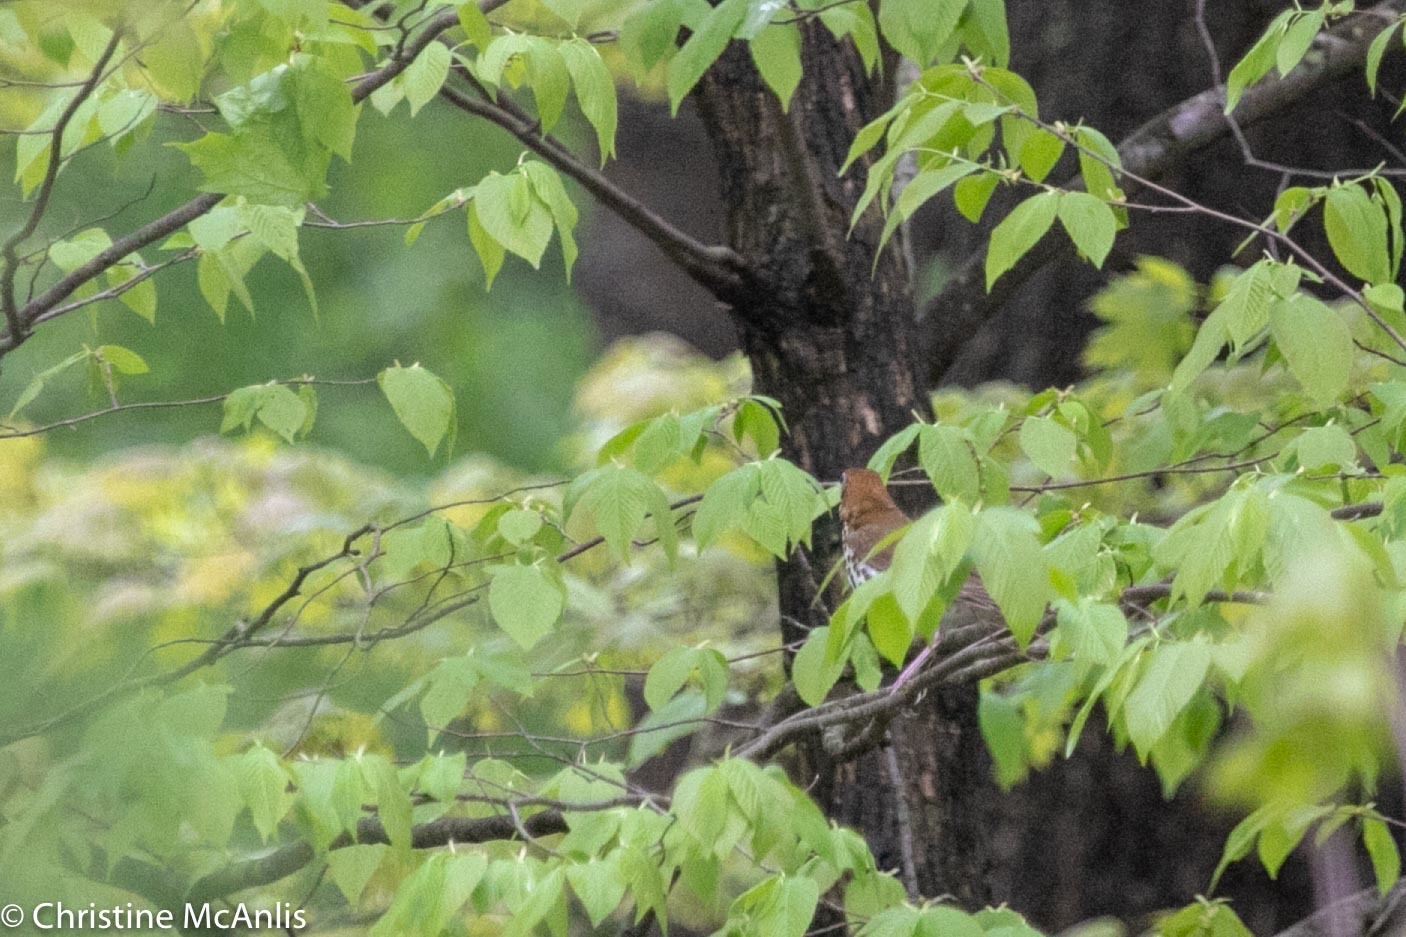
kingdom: Animalia
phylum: Chordata
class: Aves
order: Passeriformes
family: Turdidae
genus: Hylocichla
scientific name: Hylocichla mustelina
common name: Wood thrush
